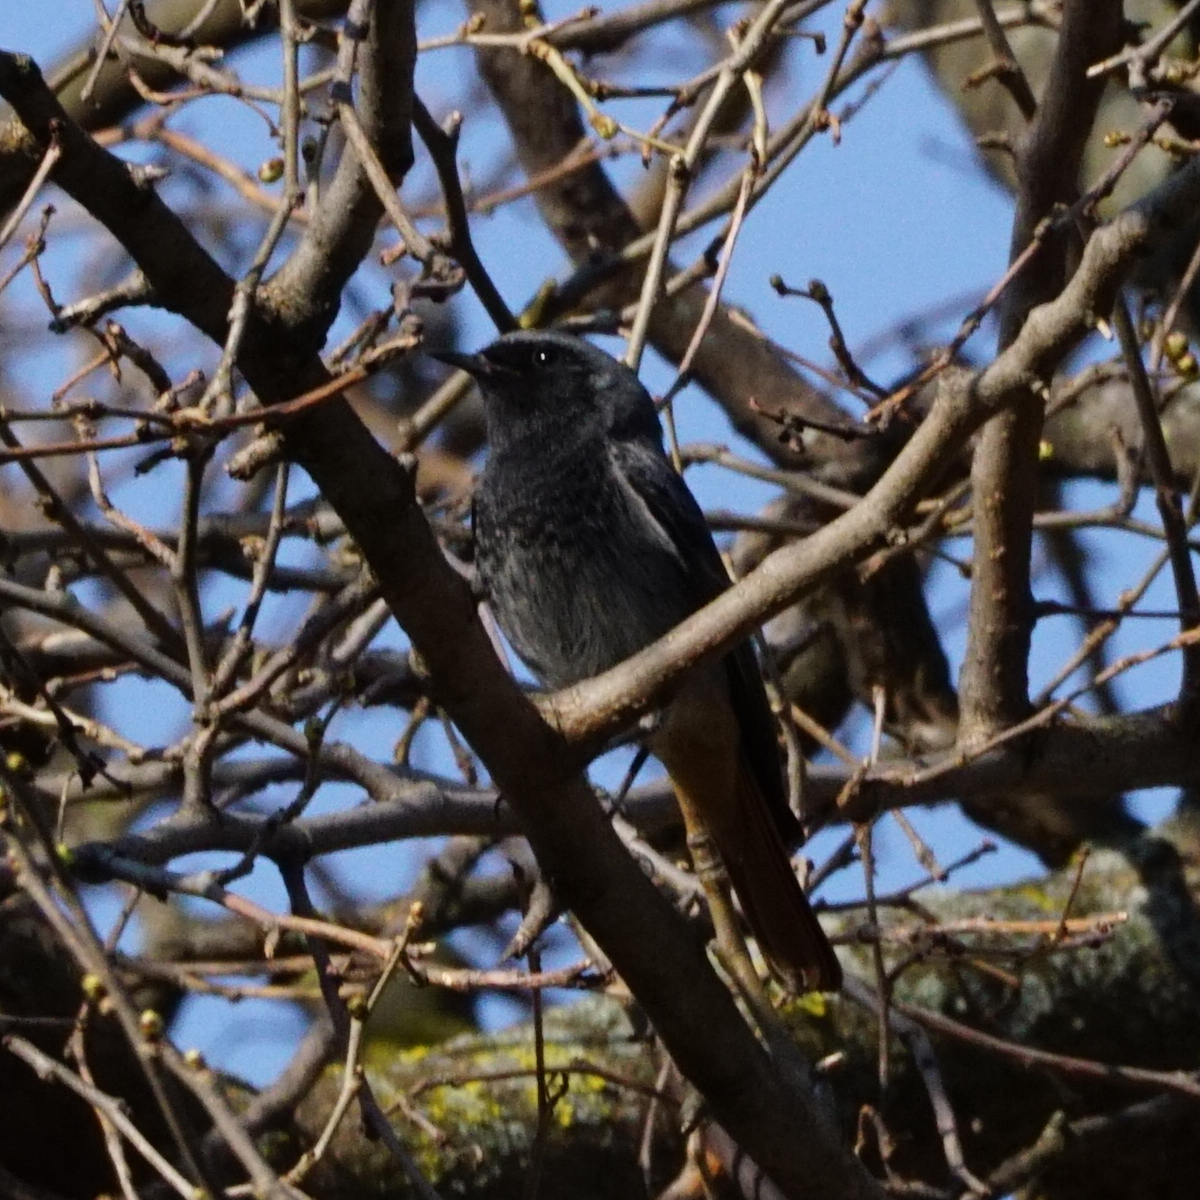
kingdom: Animalia
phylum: Chordata
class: Aves
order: Passeriformes
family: Muscicapidae
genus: Phoenicurus
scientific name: Phoenicurus ochruros
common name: Black redstart
